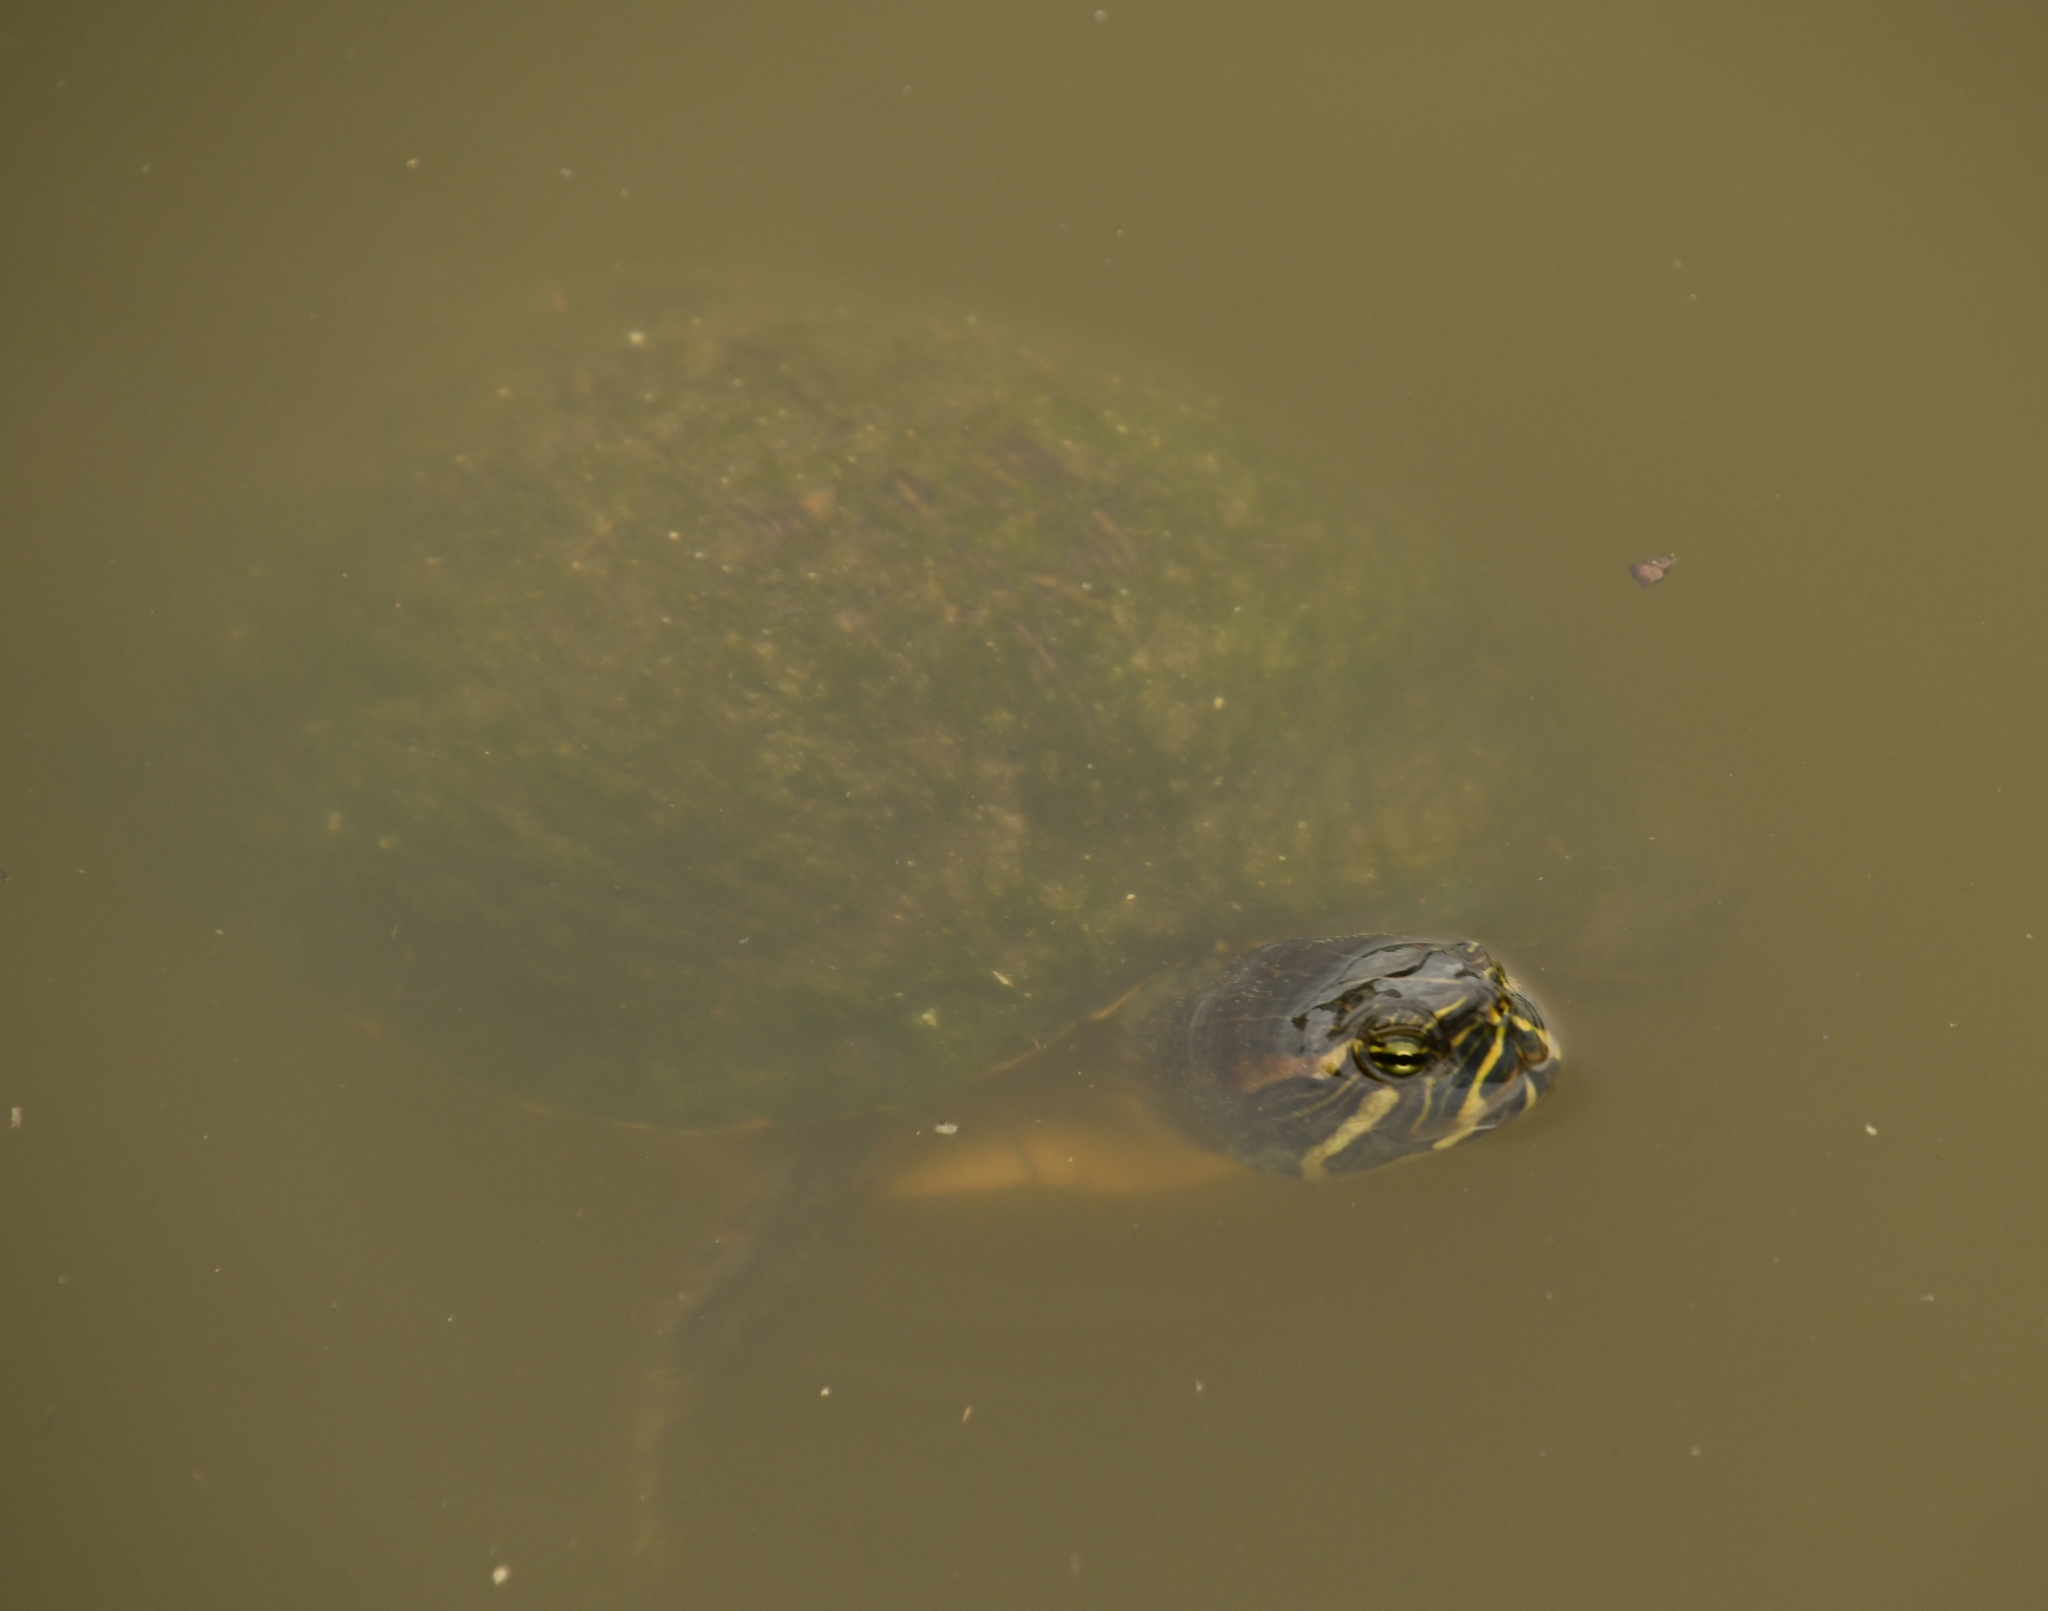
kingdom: Animalia
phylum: Chordata
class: Testudines
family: Emydidae
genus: Trachemys
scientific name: Trachemys scripta
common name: Slider
